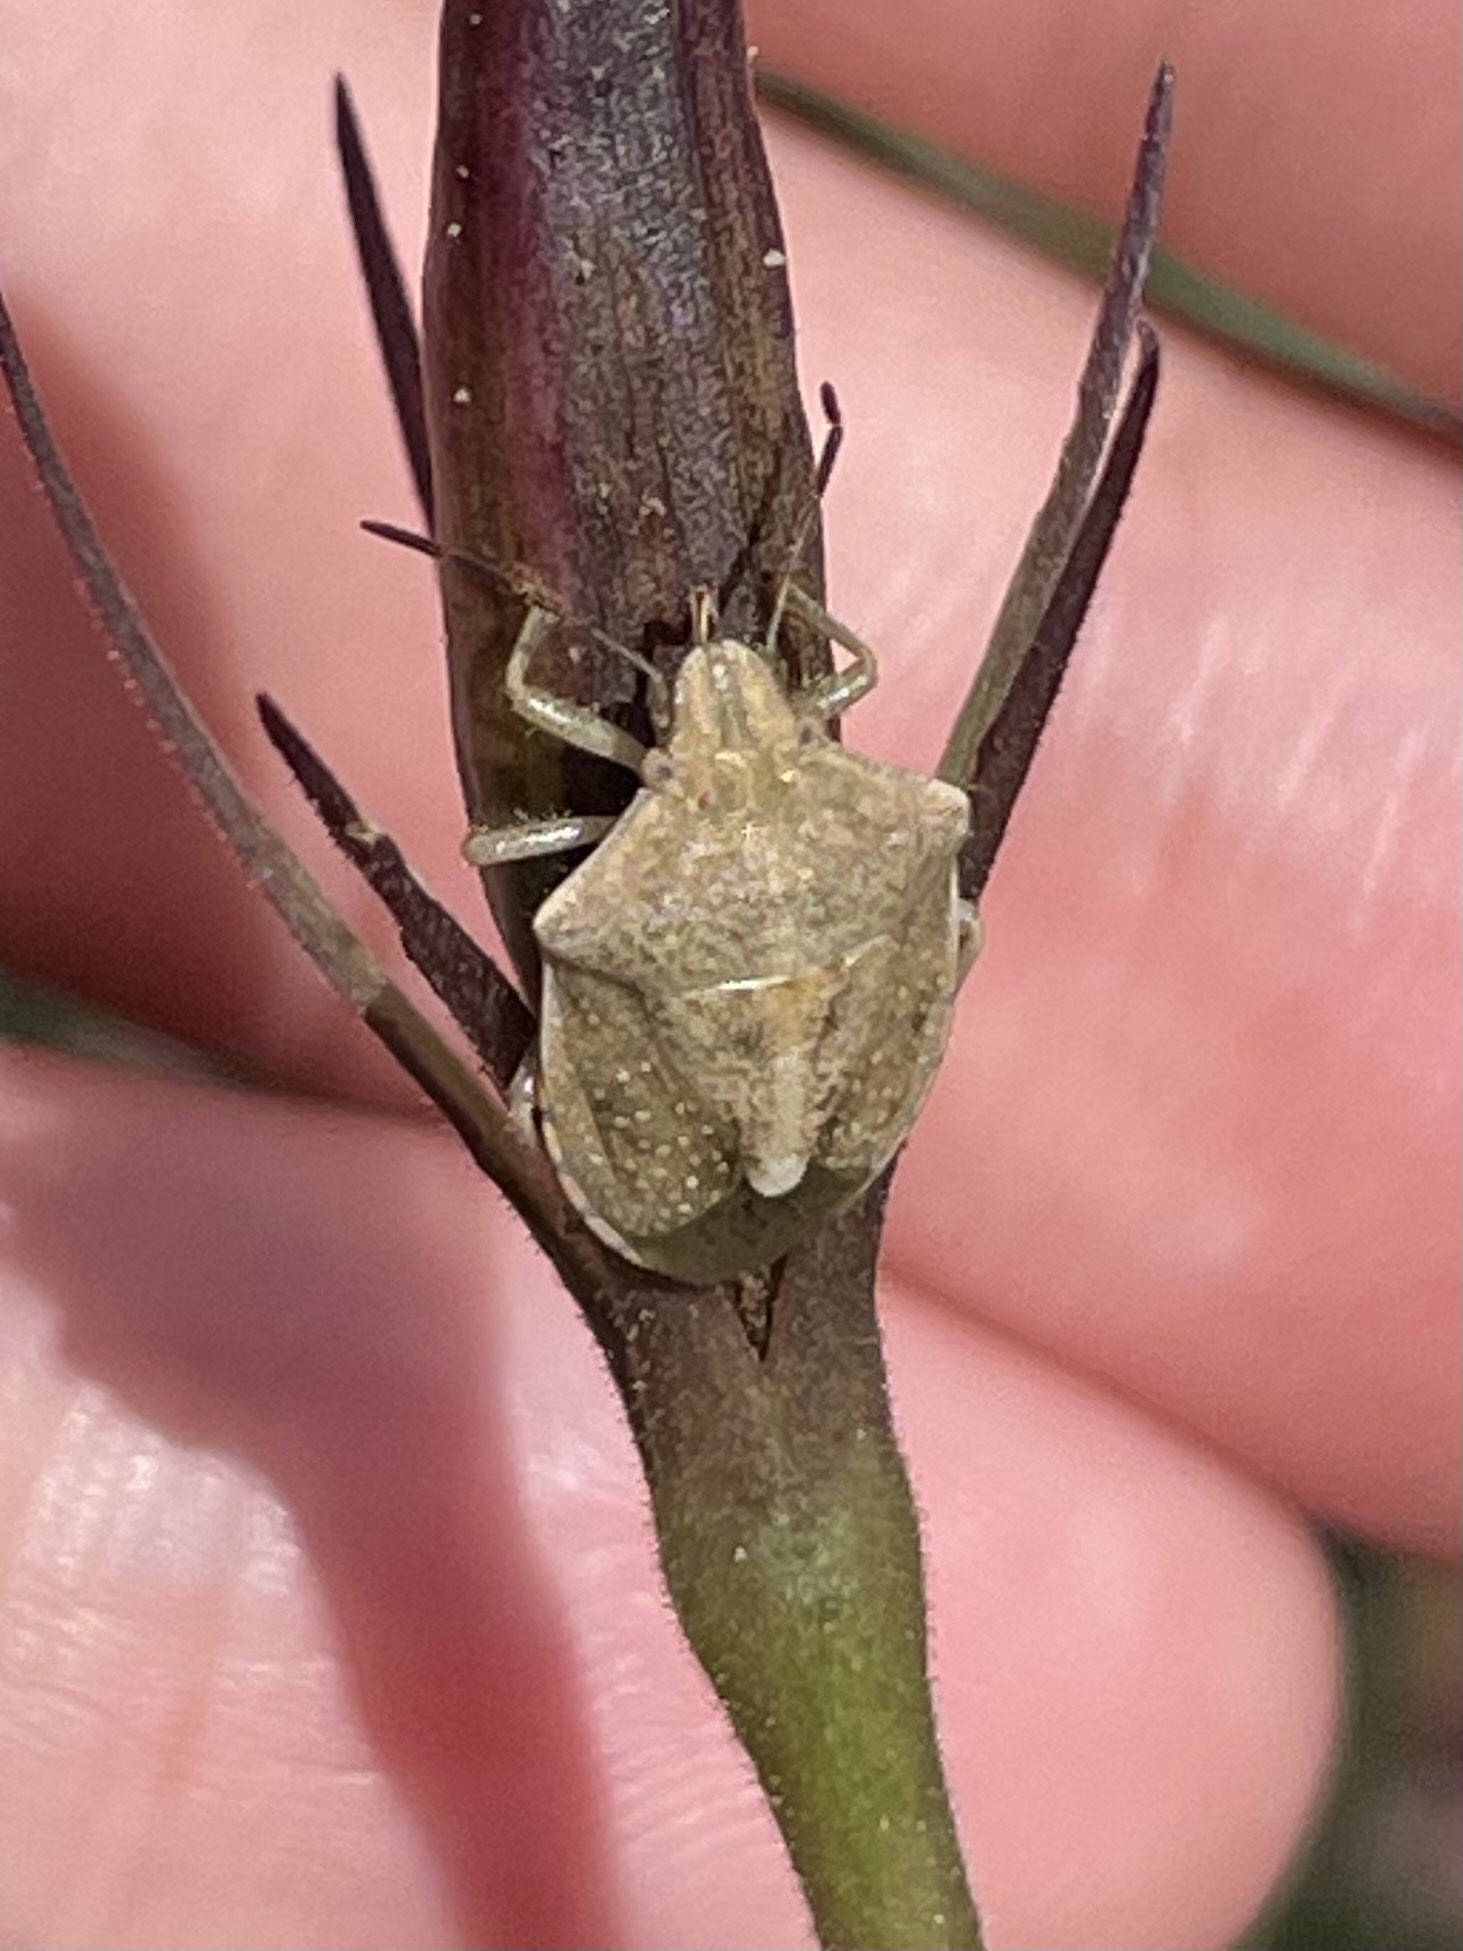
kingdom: Animalia
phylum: Arthropoda
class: Insecta
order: Hemiptera
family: Pentatomidae
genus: Thyanta
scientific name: Thyanta accerra
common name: Stink bug
